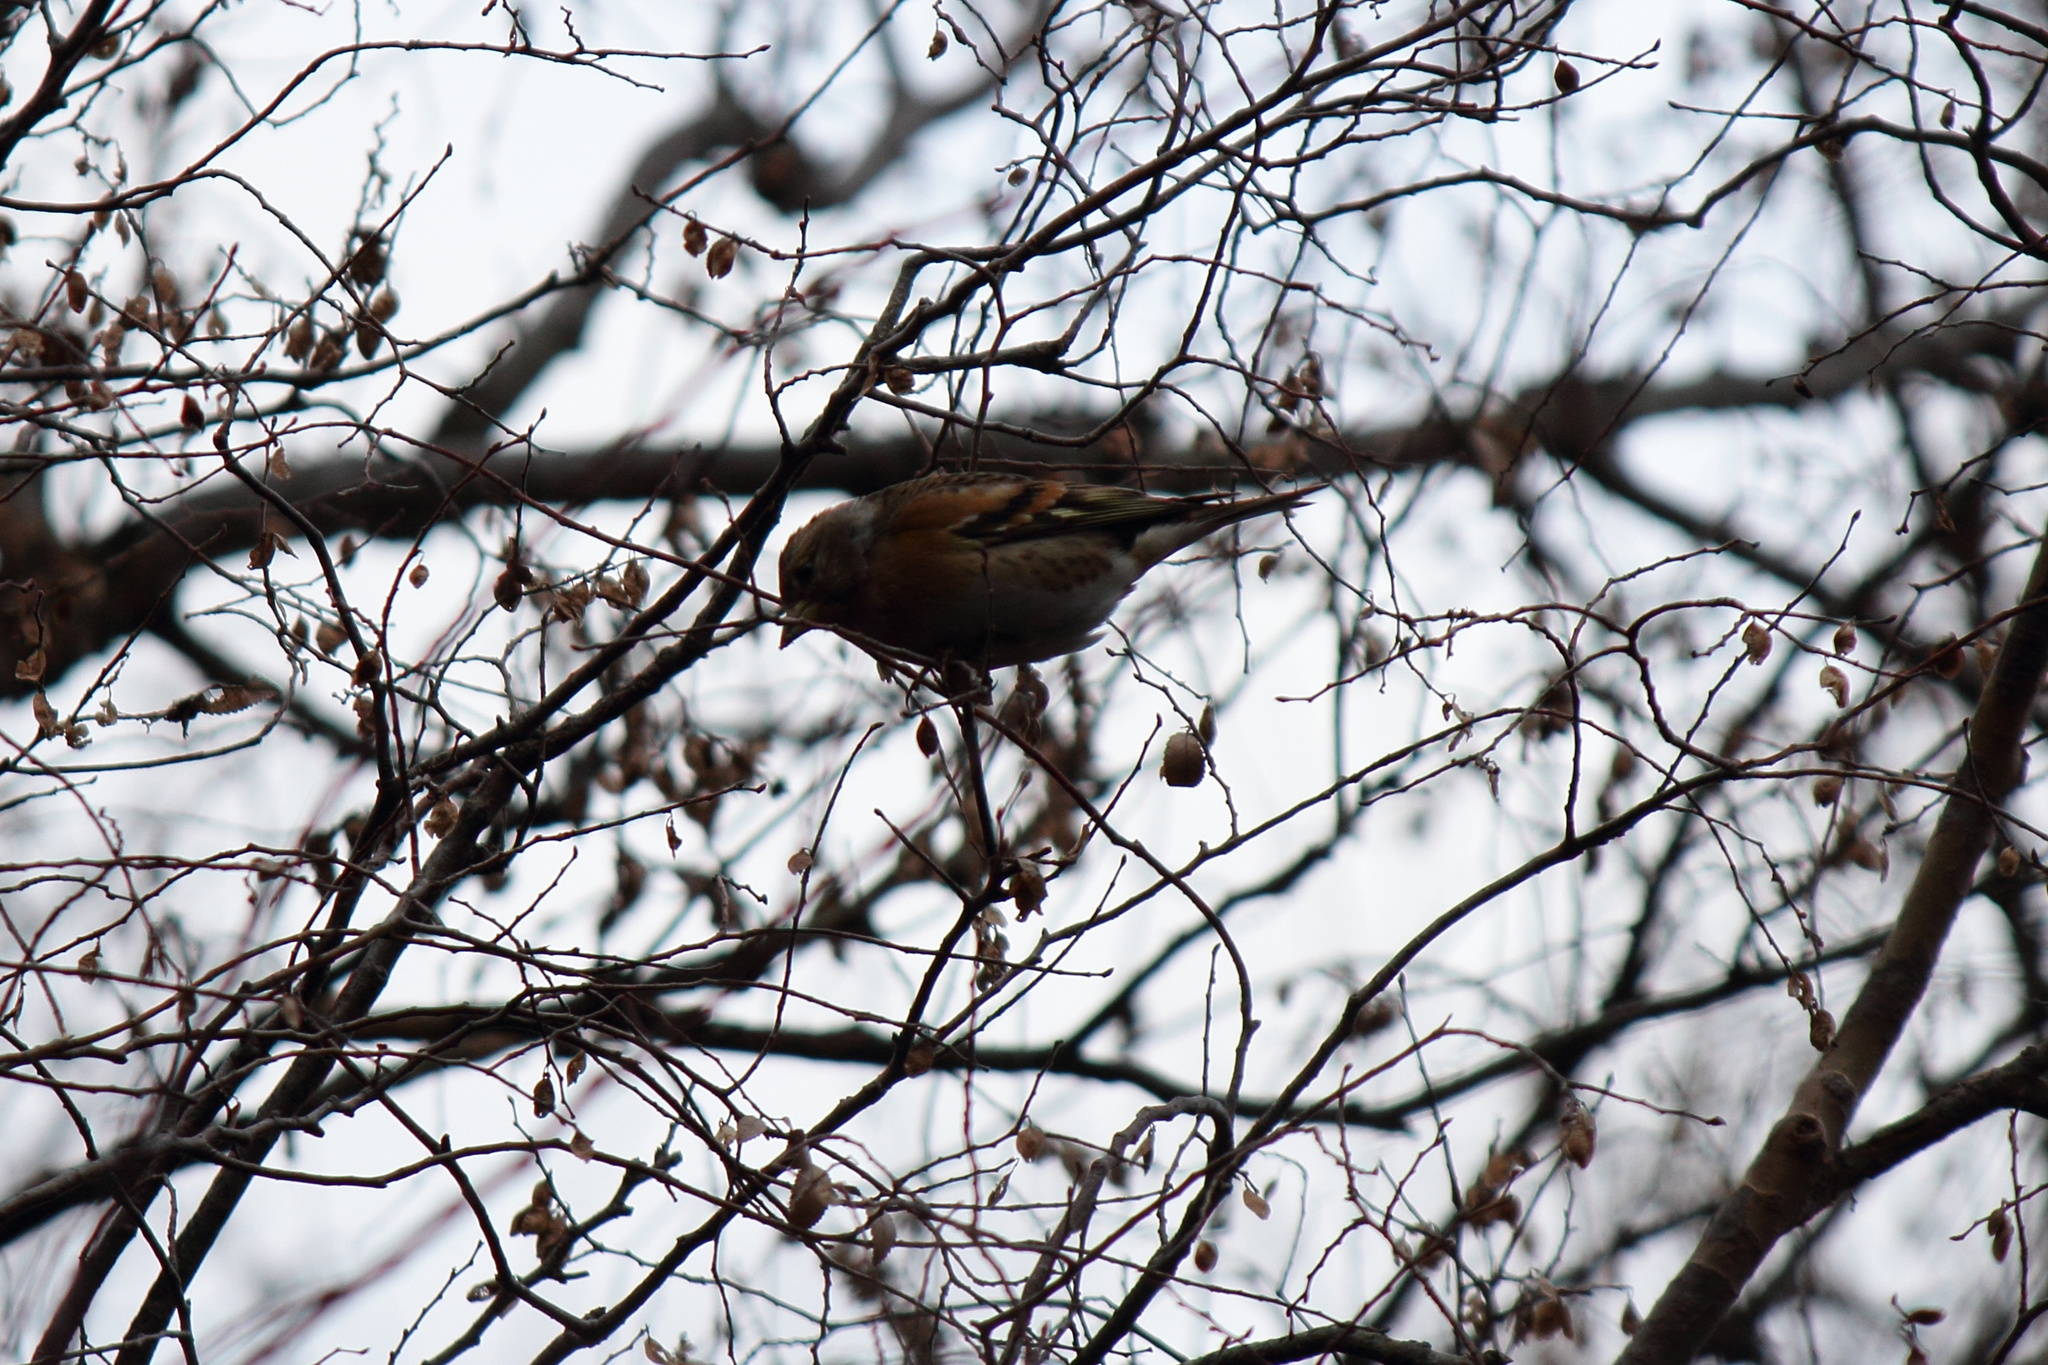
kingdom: Animalia
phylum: Chordata
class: Aves
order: Passeriformes
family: Fringillidae
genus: Fringilla
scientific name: Fringilla montifringilla
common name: Brambling
